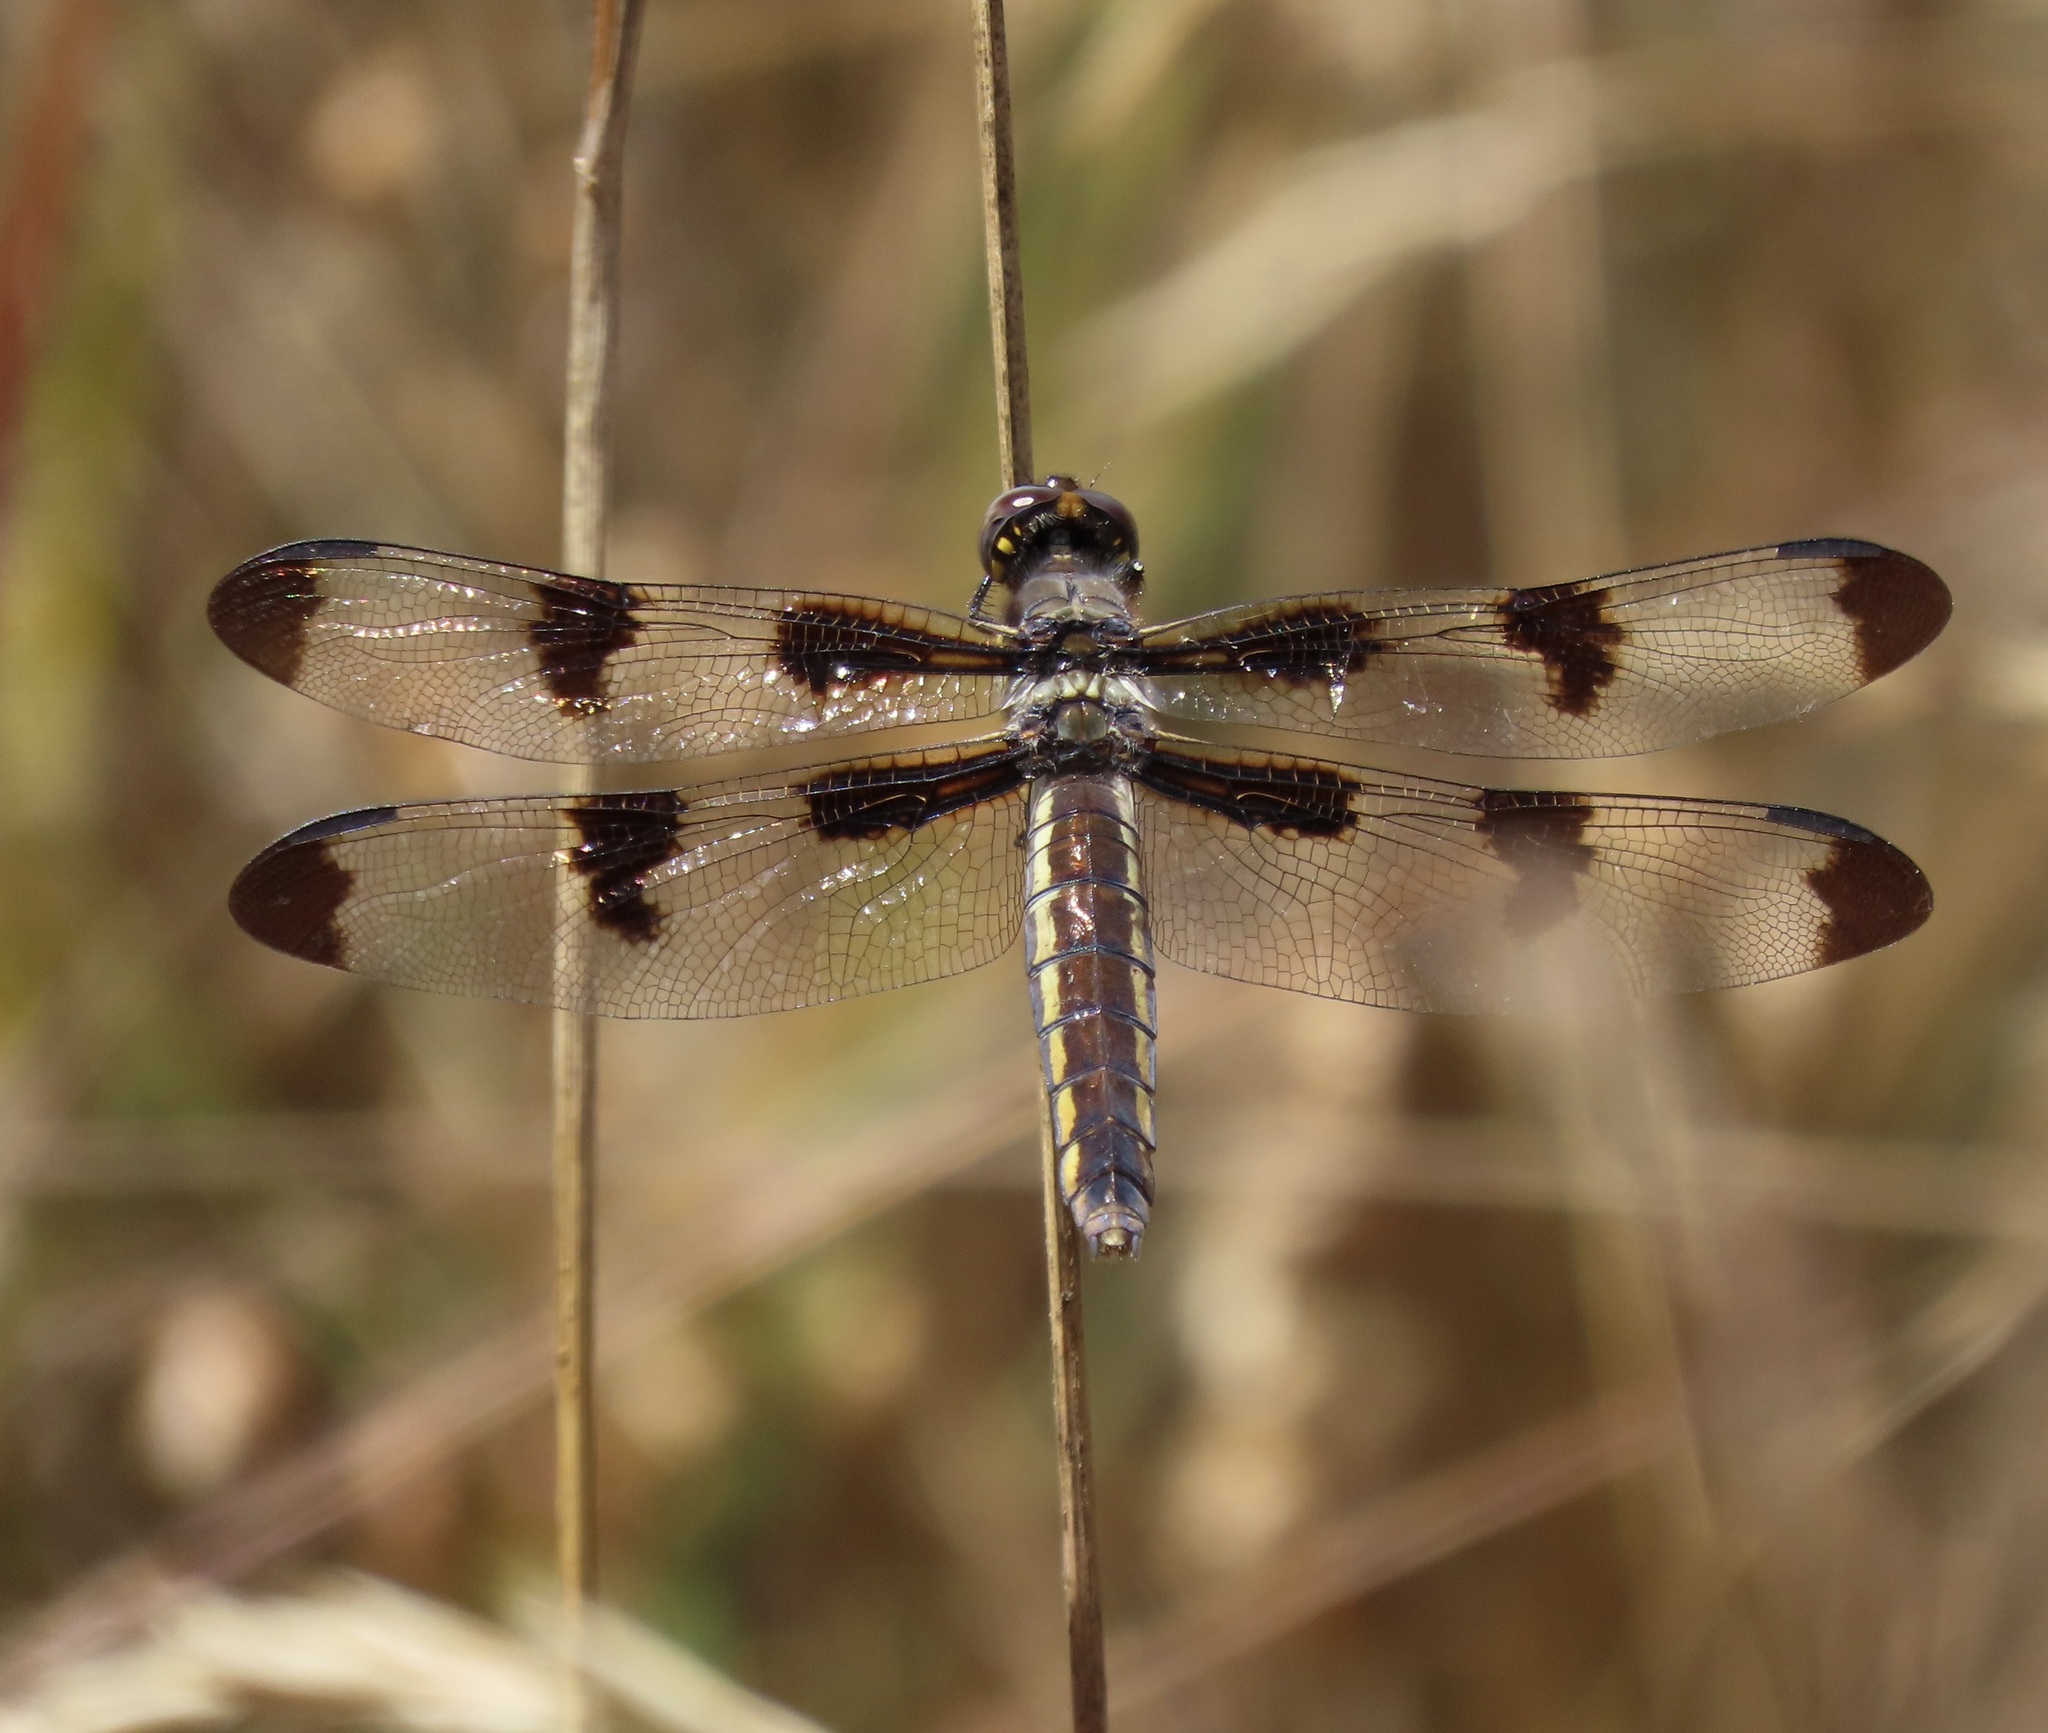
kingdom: Animalia
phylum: Arthropoda
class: Insecta
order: Odonata
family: Libellulidae
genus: Libellula
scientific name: Libellula pulchella
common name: Twelve-spotted skimmer
